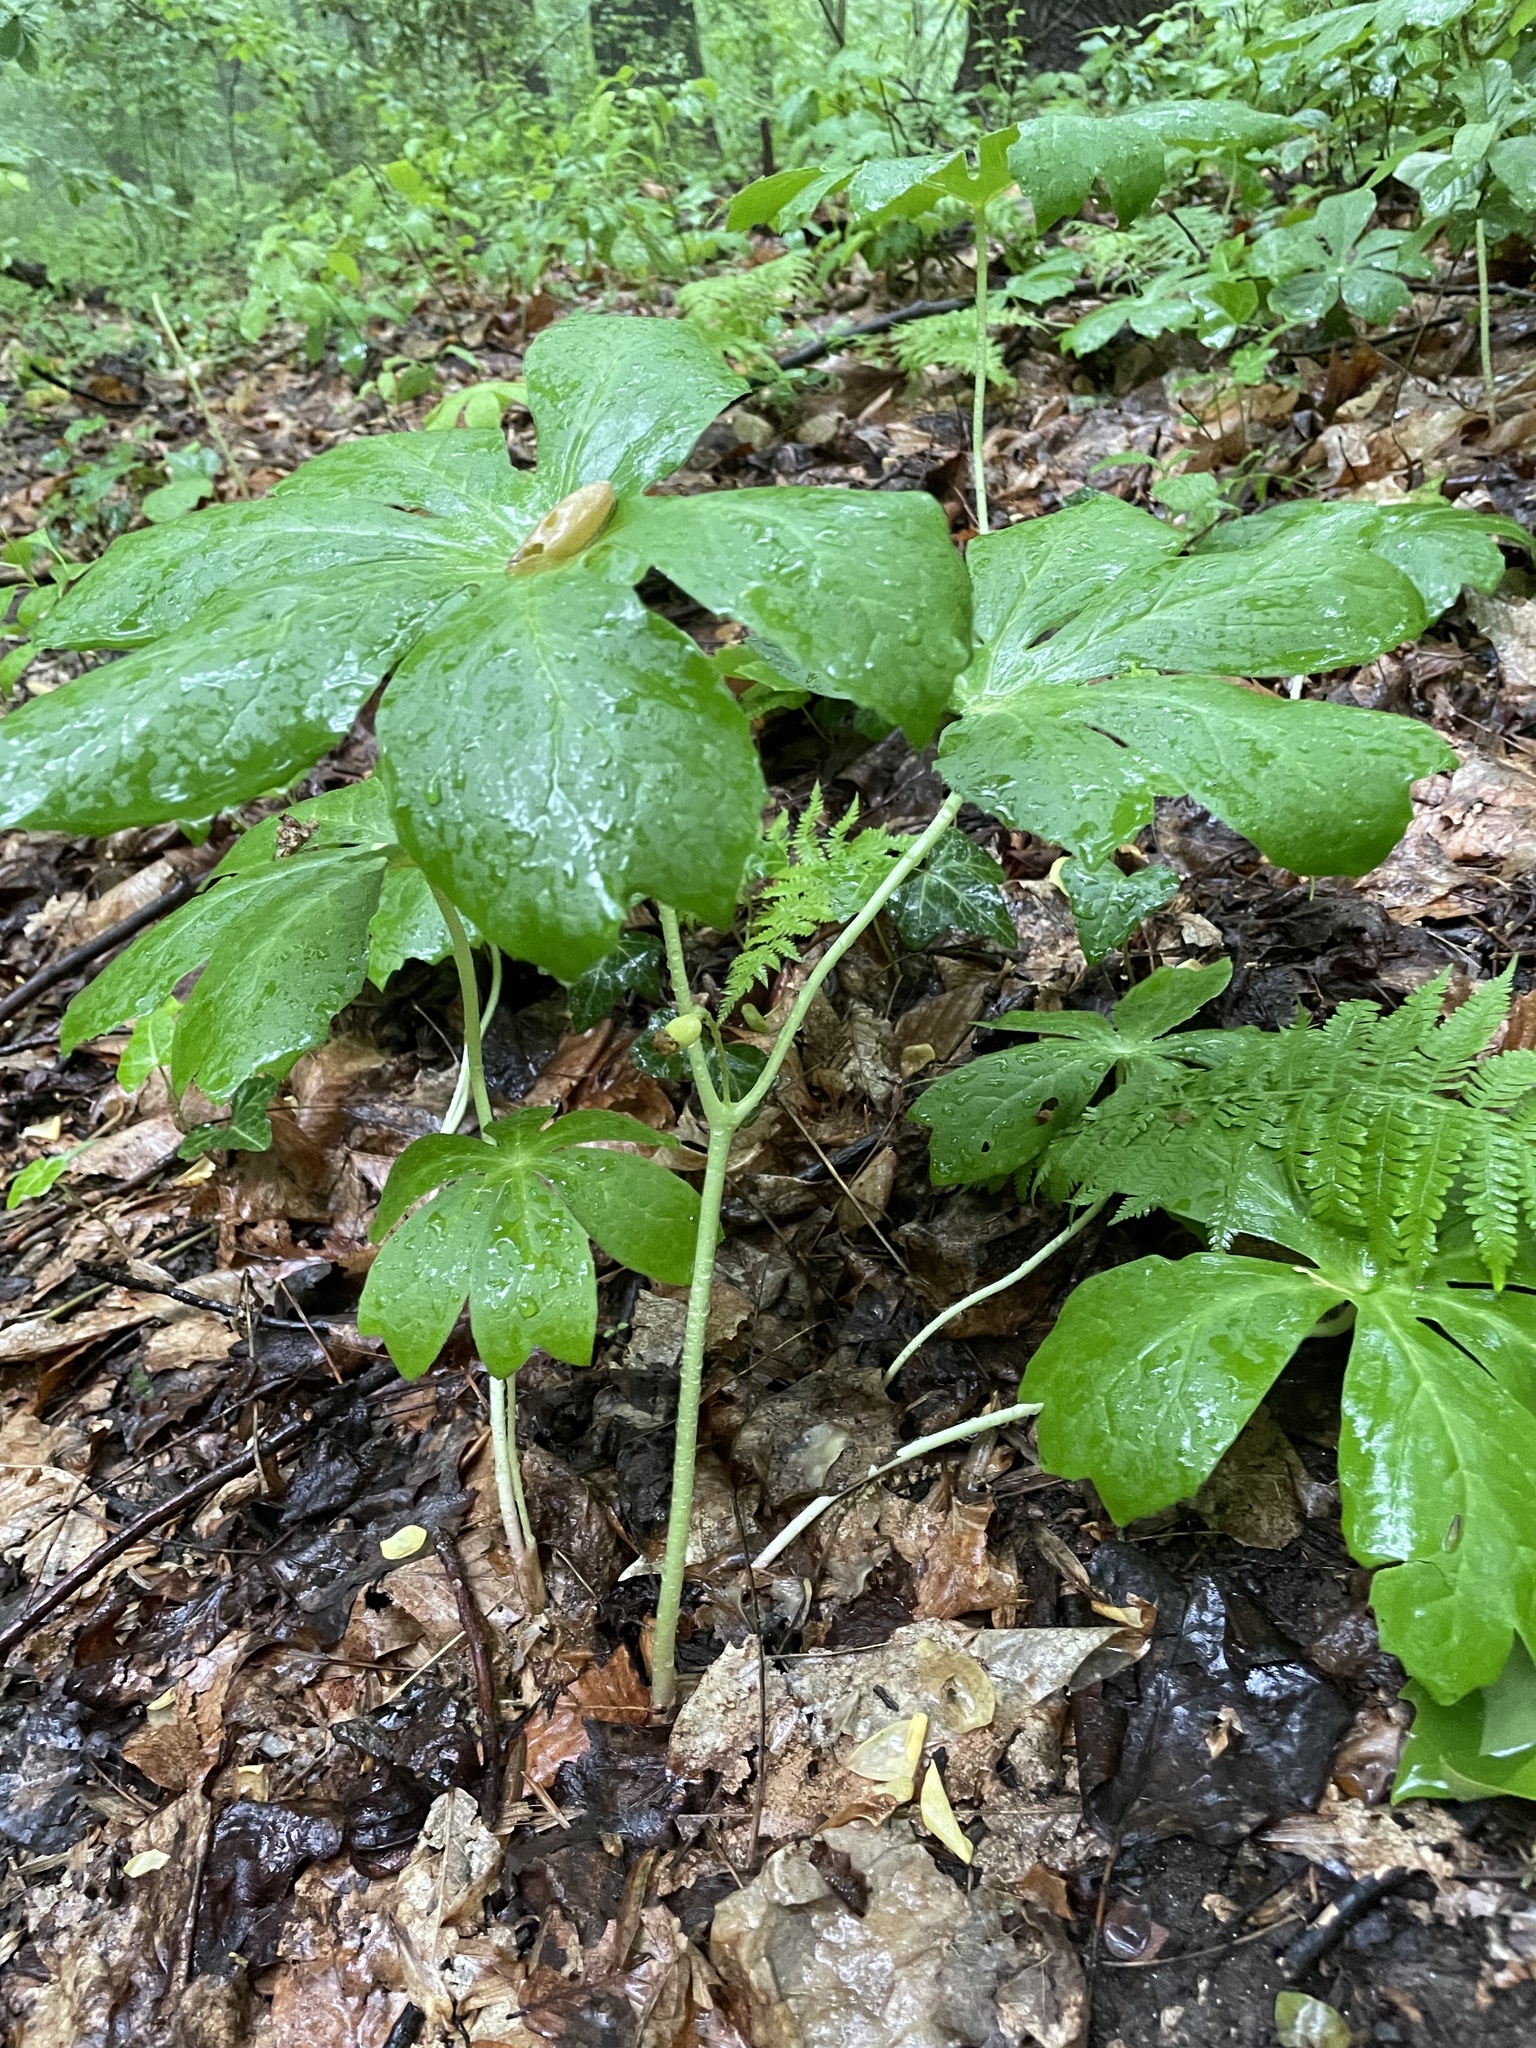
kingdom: Plantae
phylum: Tracheophyta
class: Magnoliopsida
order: Ranunculales
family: Berberidaceae
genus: Podophyllum
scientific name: Podophyllum peltatum
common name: Wild mandrake
